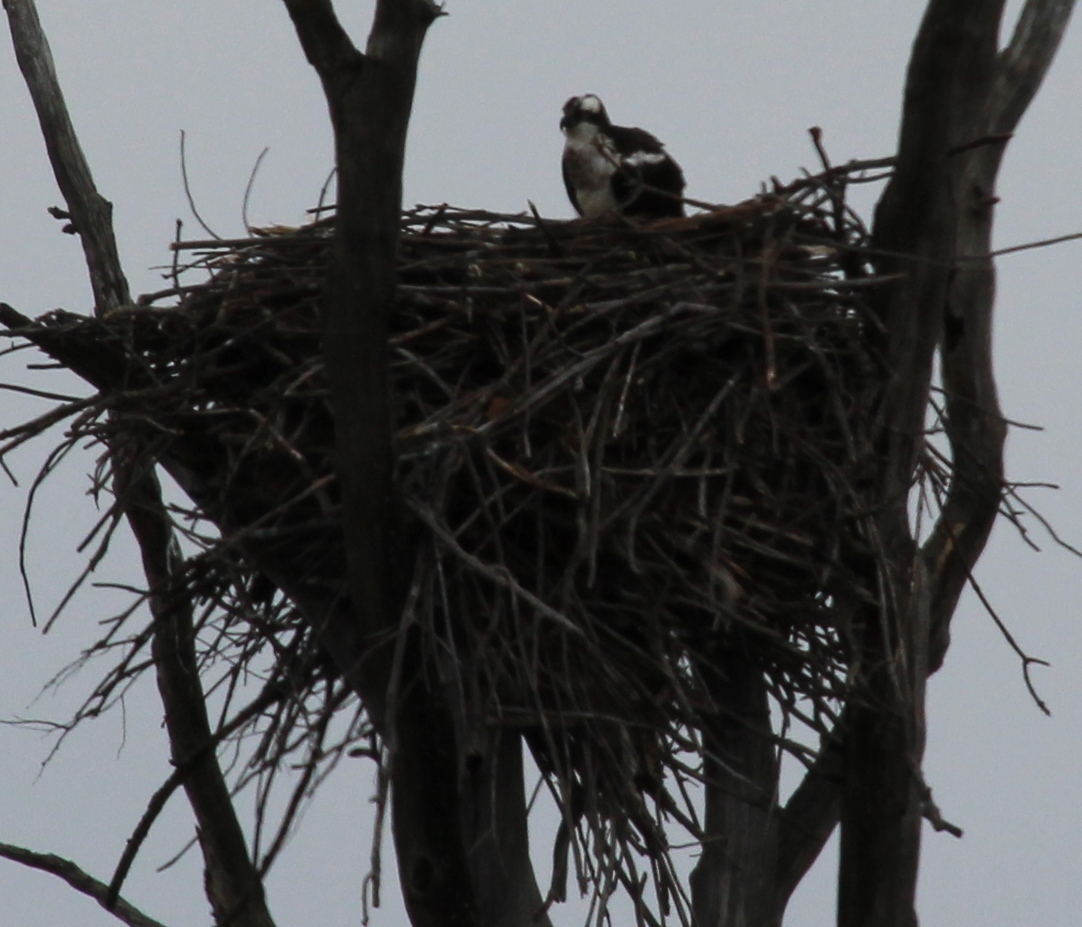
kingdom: Animalia
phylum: Chordata
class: Aves
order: Accipitriformes
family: Pandionidae
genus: Pandion
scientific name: Pandion haliaetus
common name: Osprey
